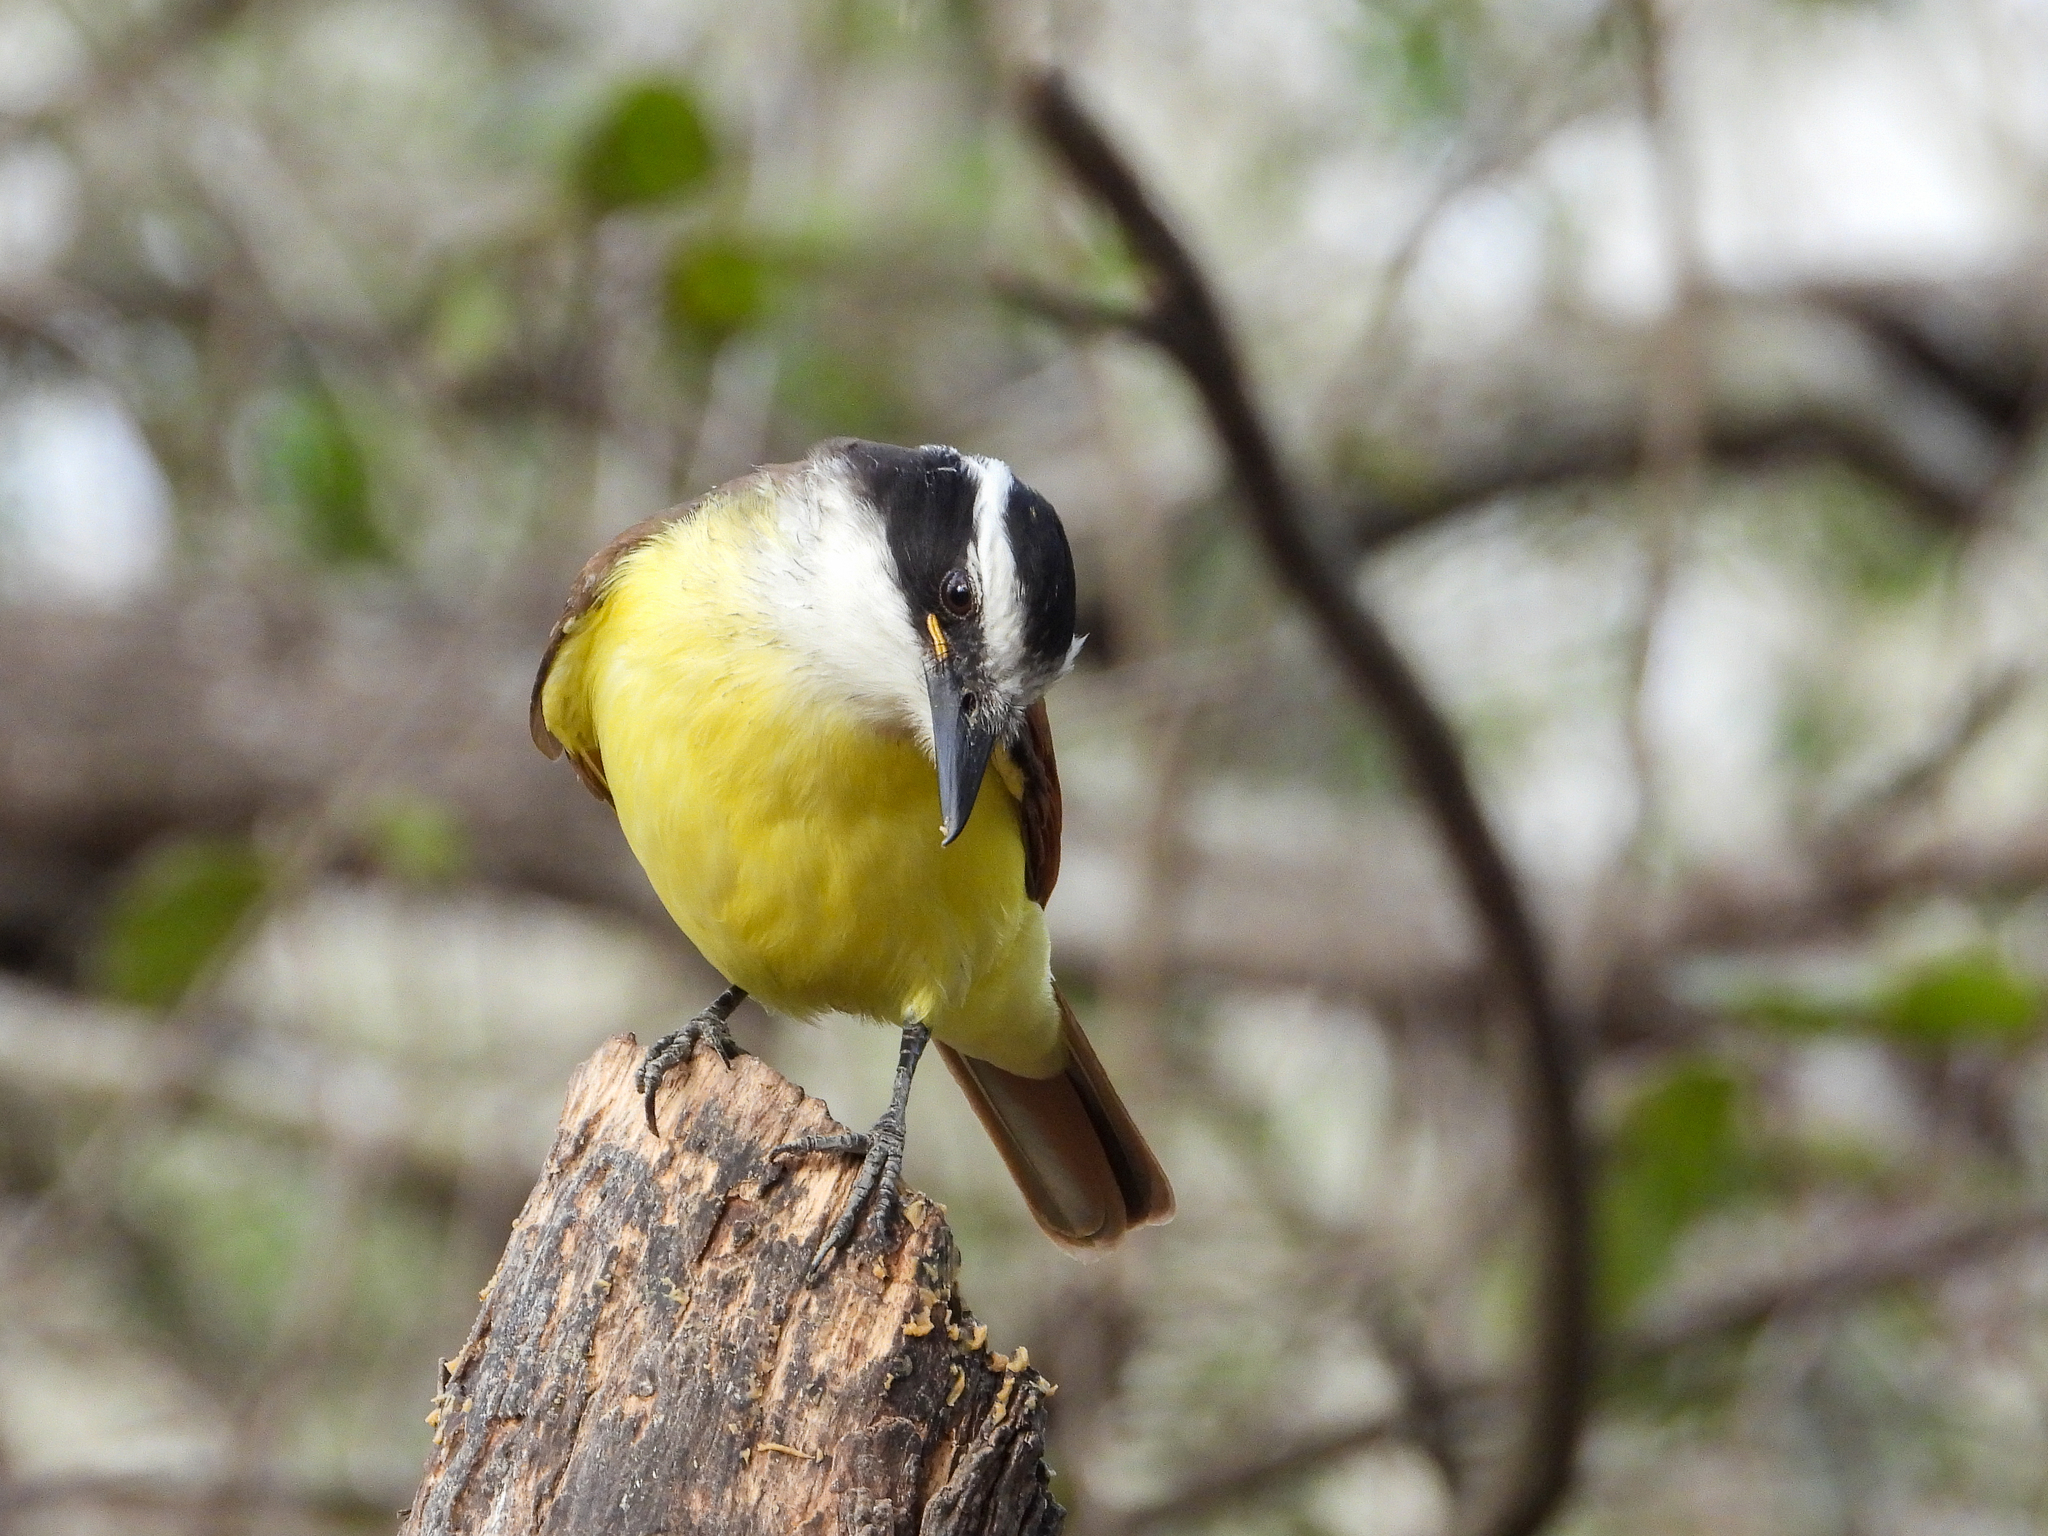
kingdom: Animalia
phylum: Chordata
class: Aves
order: Passeriformes
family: Tyrannidae
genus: Pitangus
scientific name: Pitangus sulphuratus
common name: Great kiskadee
